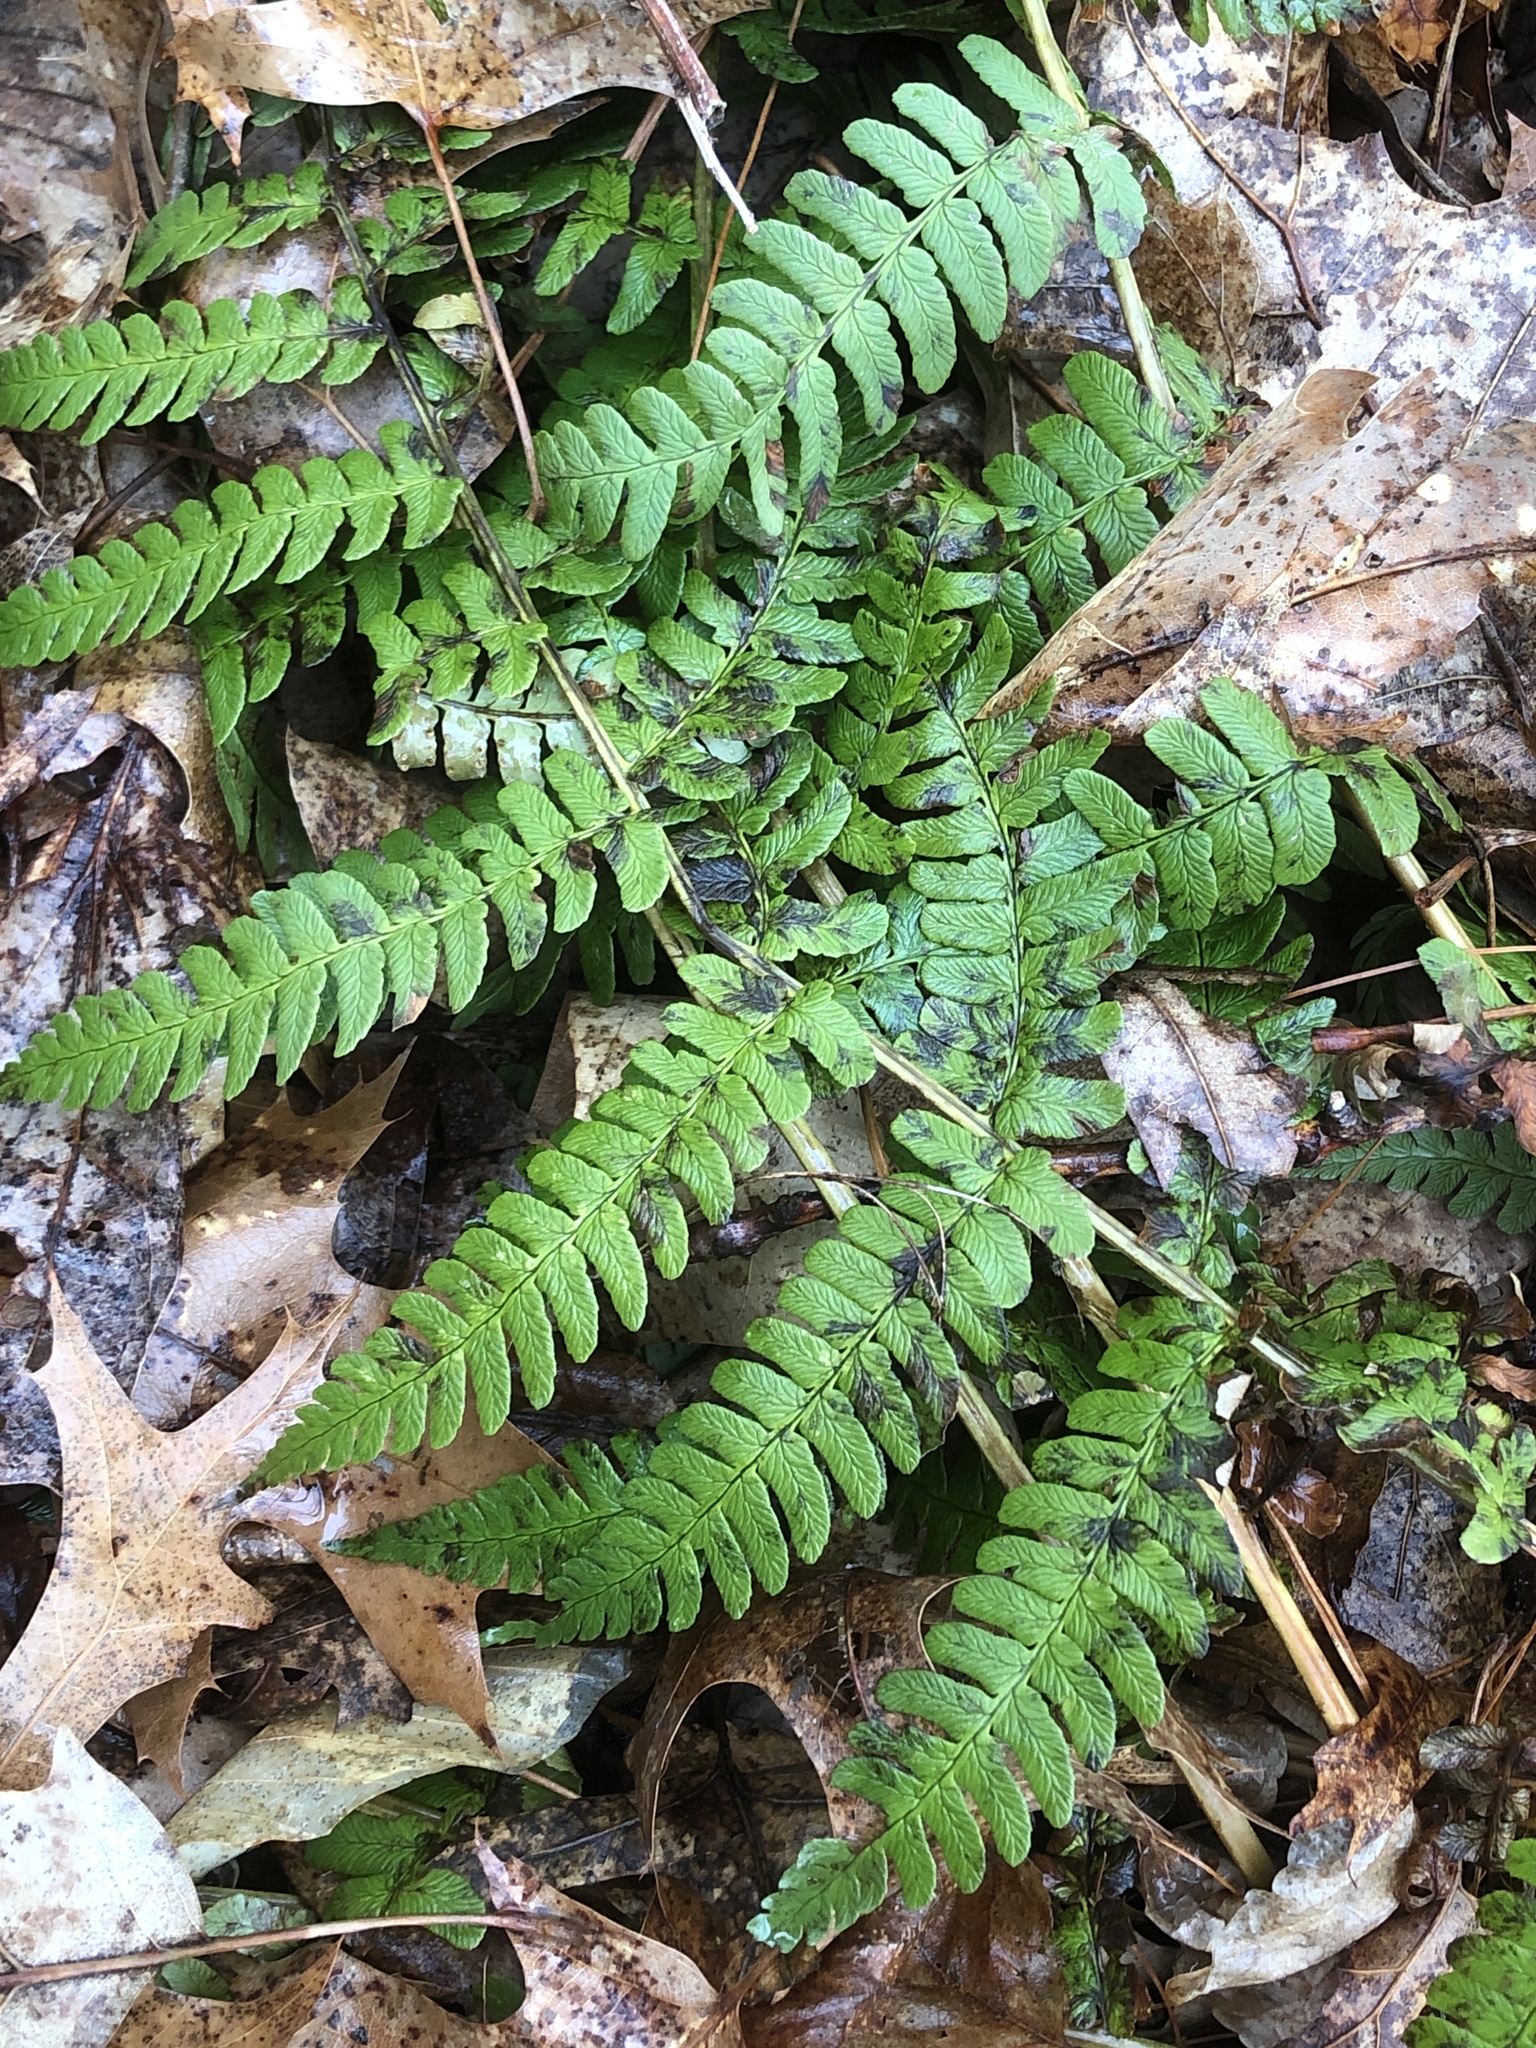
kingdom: Plantae
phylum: Tracheophyta
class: Polypodiopsida
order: Polypodiales
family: Dryopteridaceae
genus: Dryopteris
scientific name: Dryopteris marginalis
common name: Marginal wood fern
